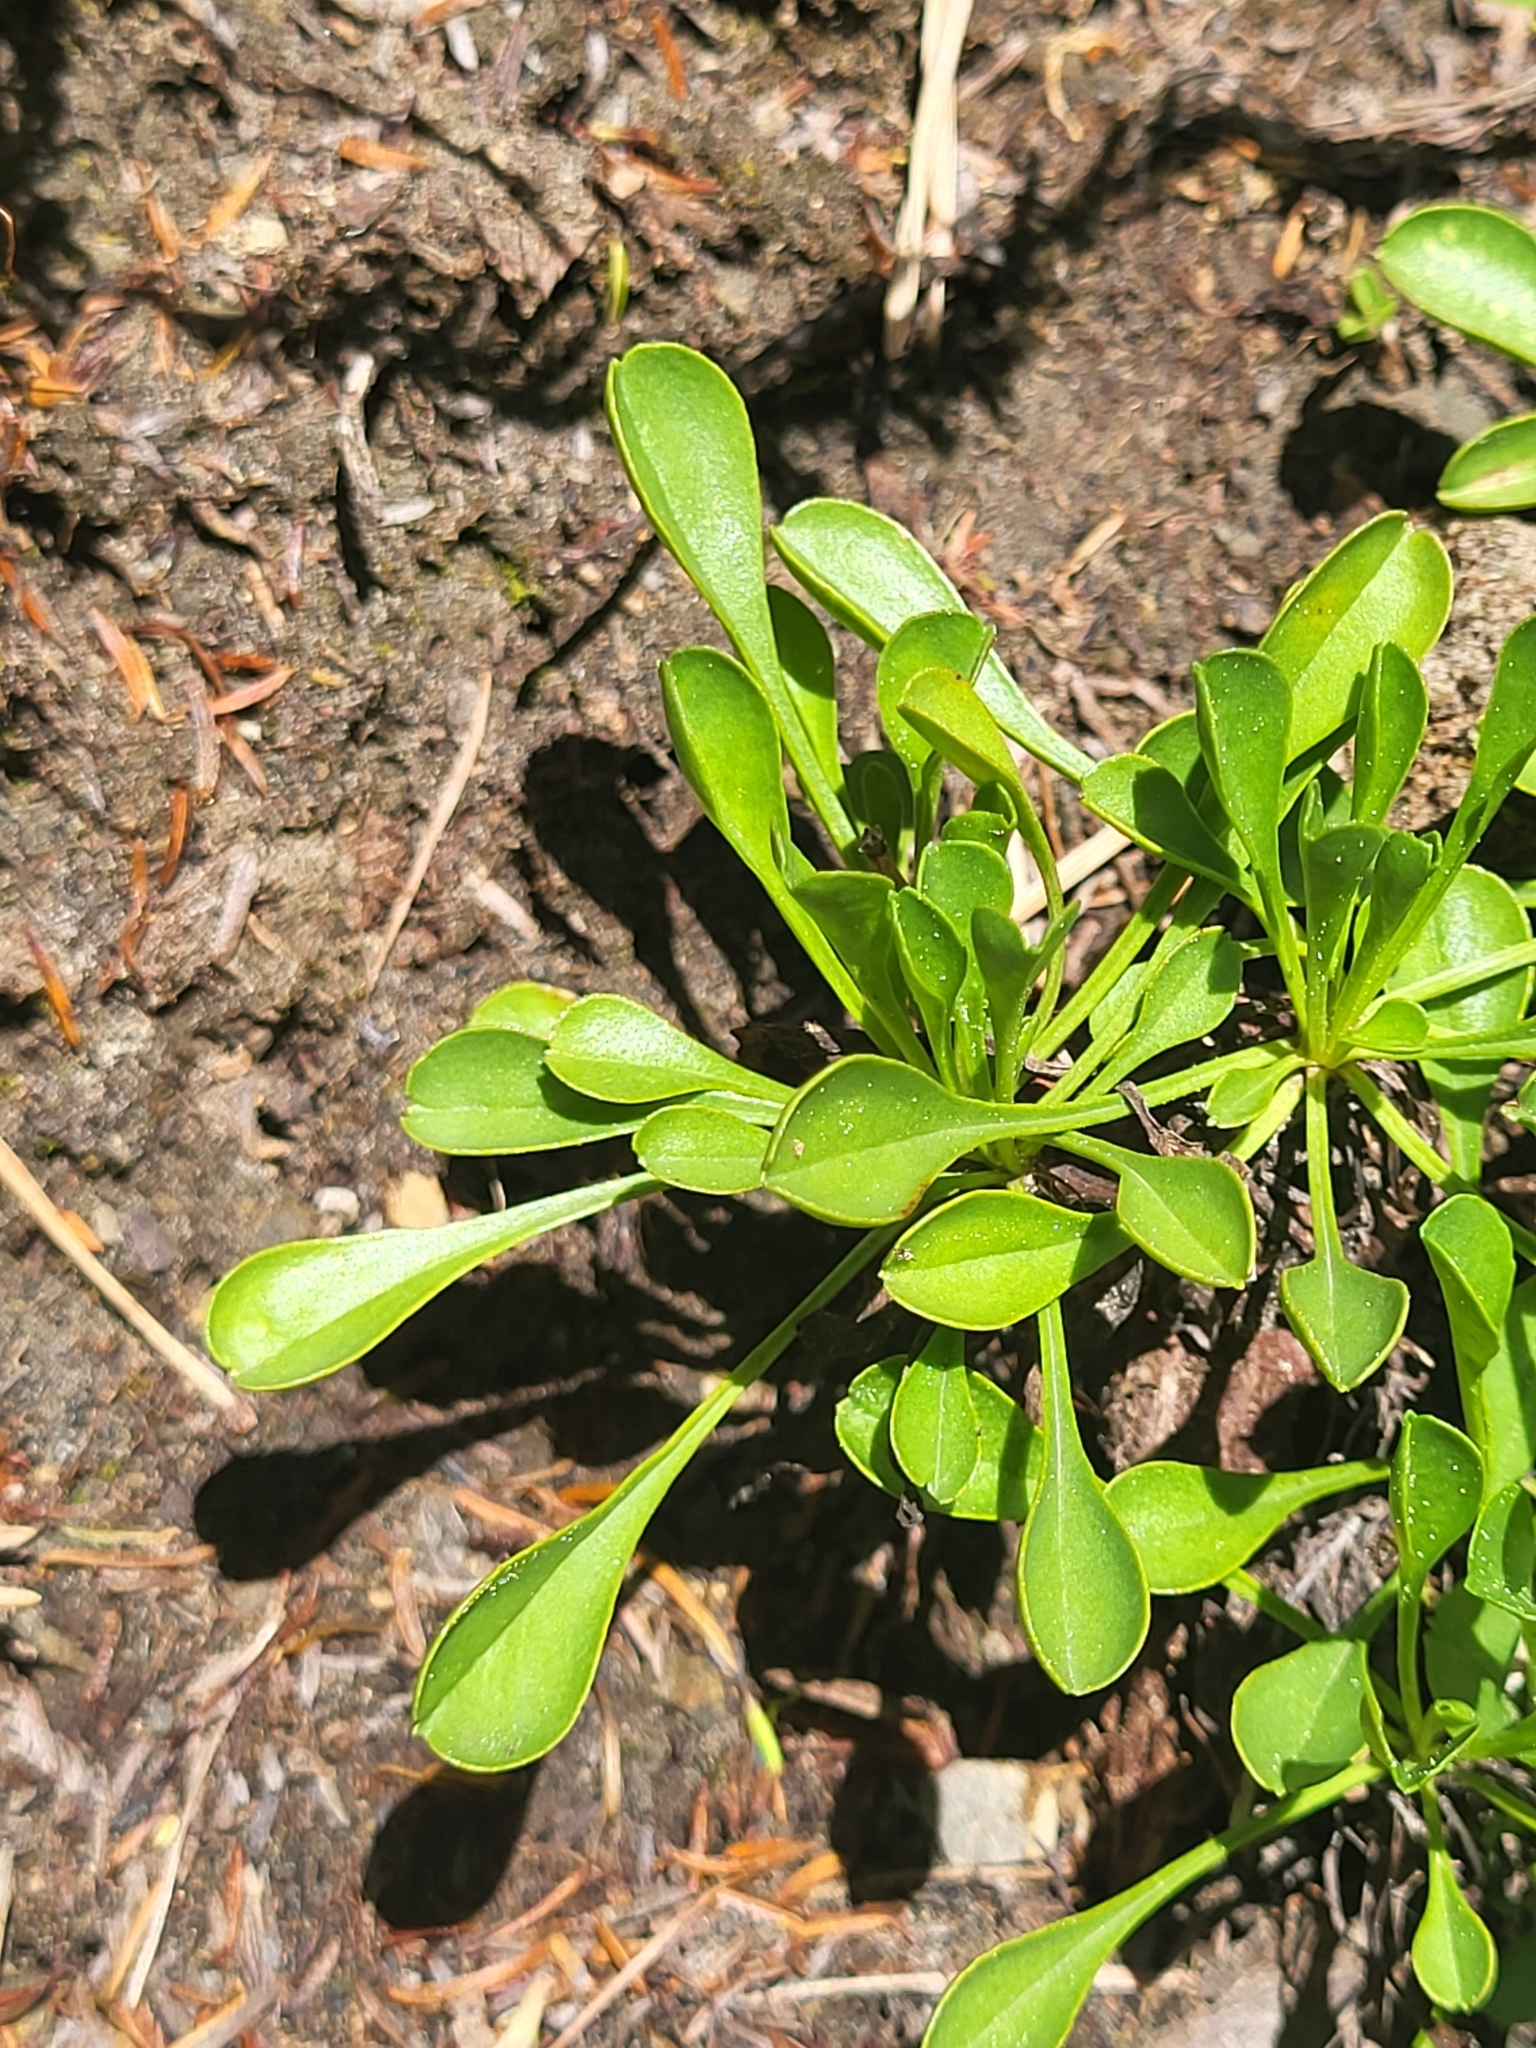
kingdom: Plantae
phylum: Tracheophyta
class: Magnoliopsida
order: Lamiales
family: Plantaginaceae
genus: Globularia
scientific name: Globularia cordifolia
